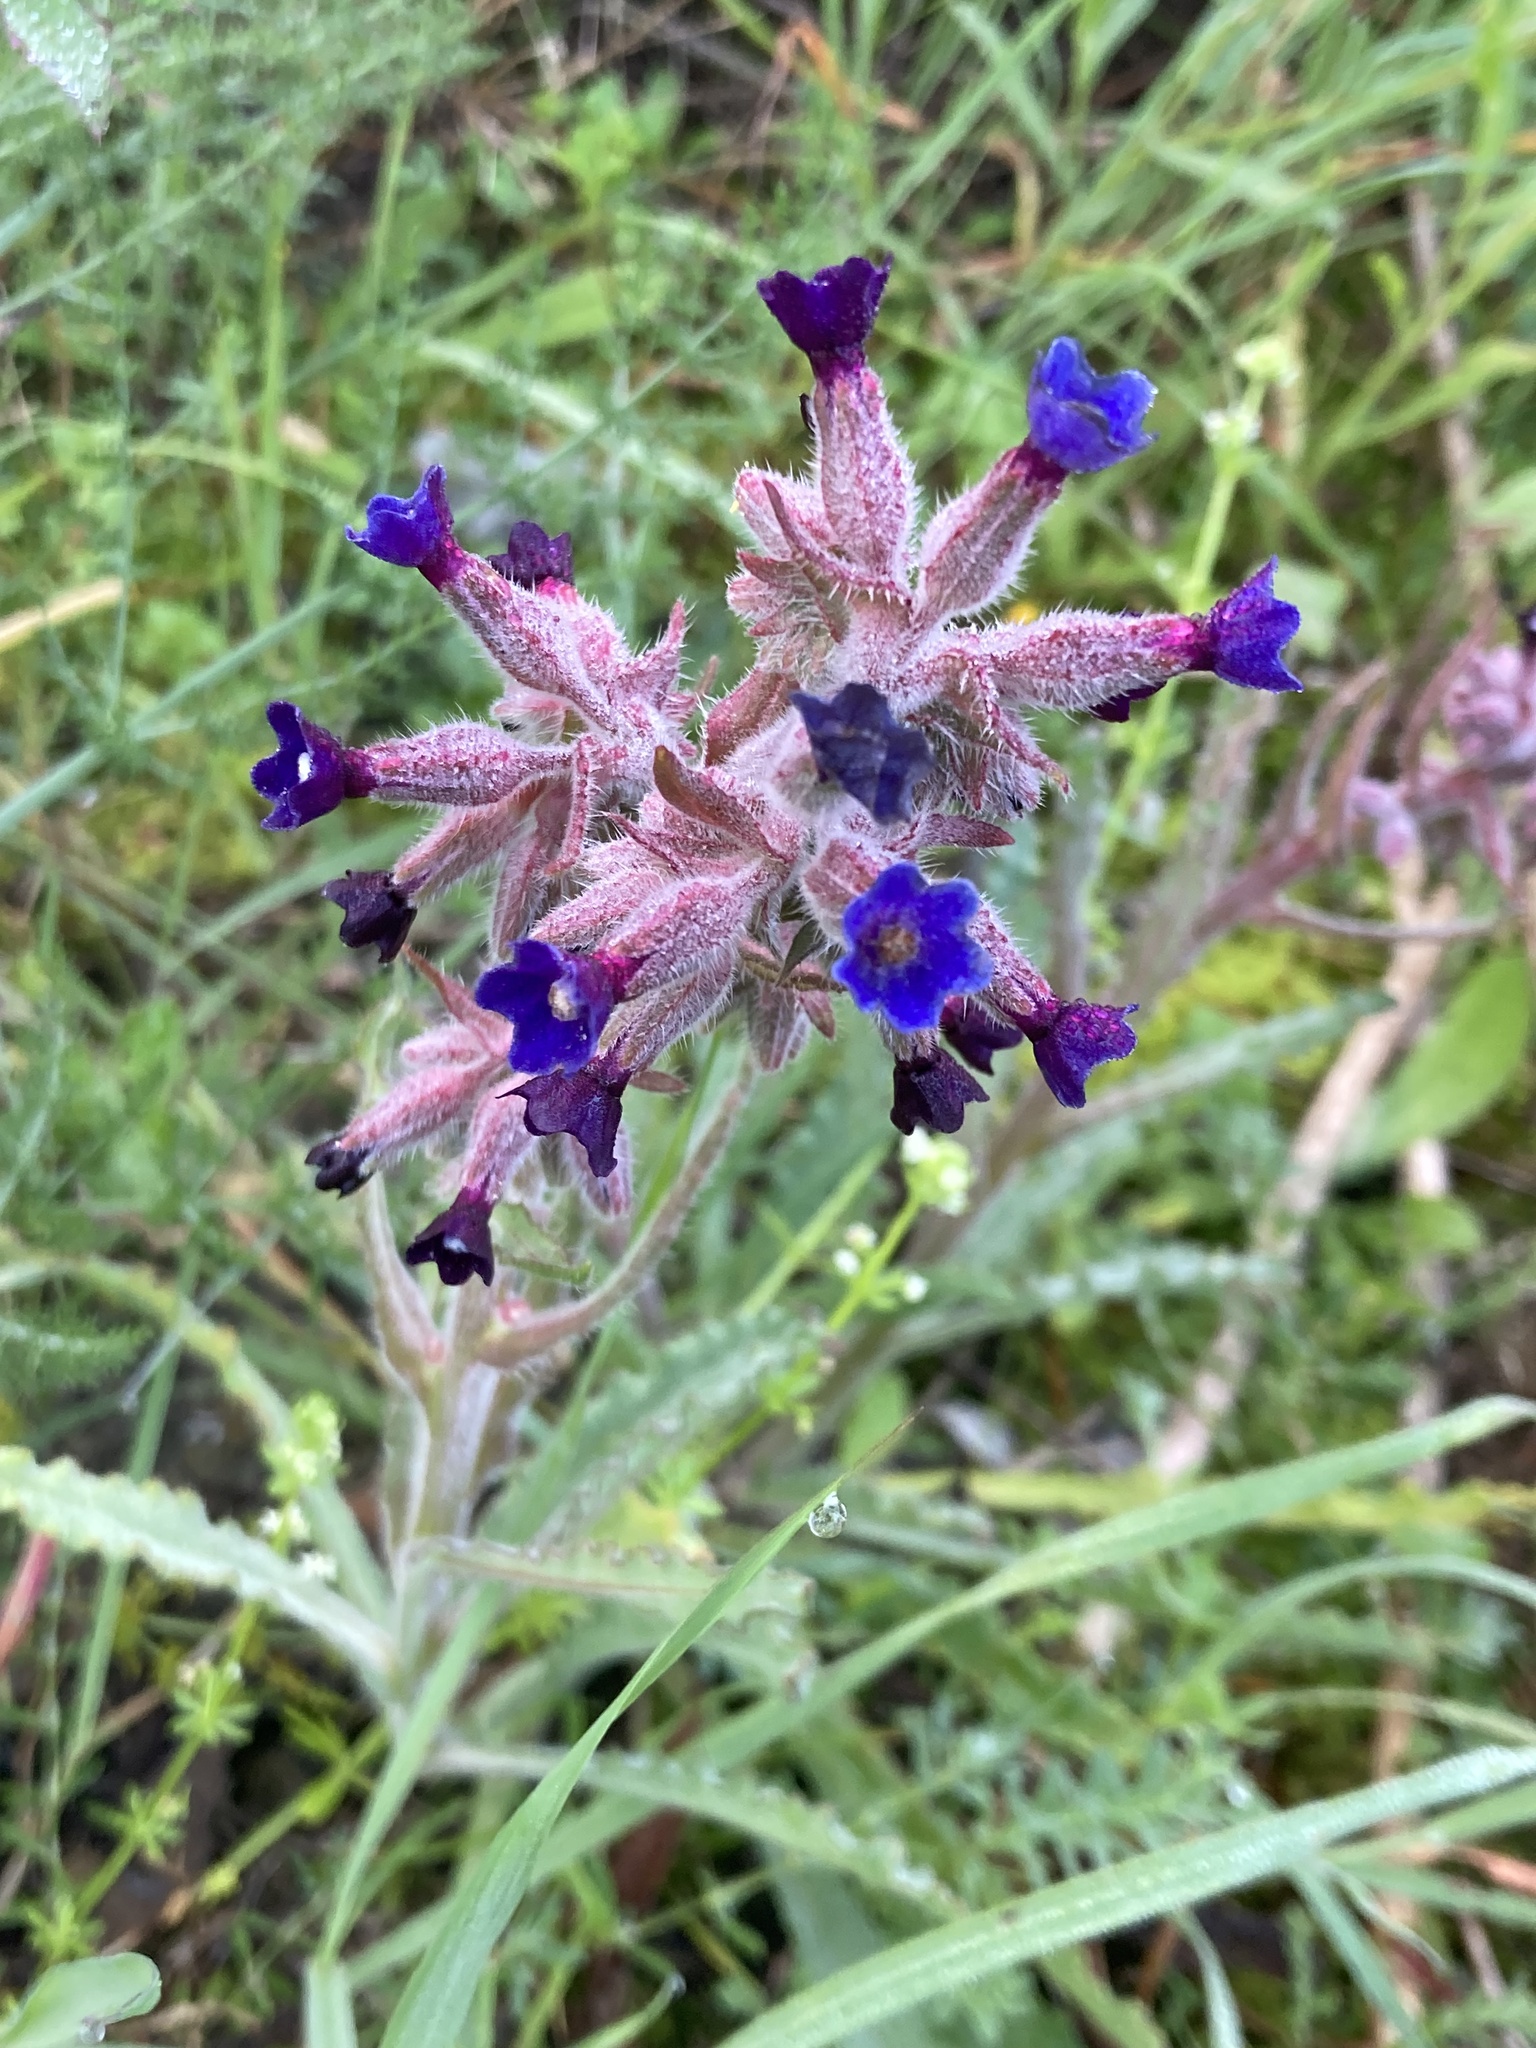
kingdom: Plantae
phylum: Tracheophyta
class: Magnoliopsida
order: Boraginales
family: Boraginaceae
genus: Anchusa
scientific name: Anchusa undulata
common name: Undulate alkanet
